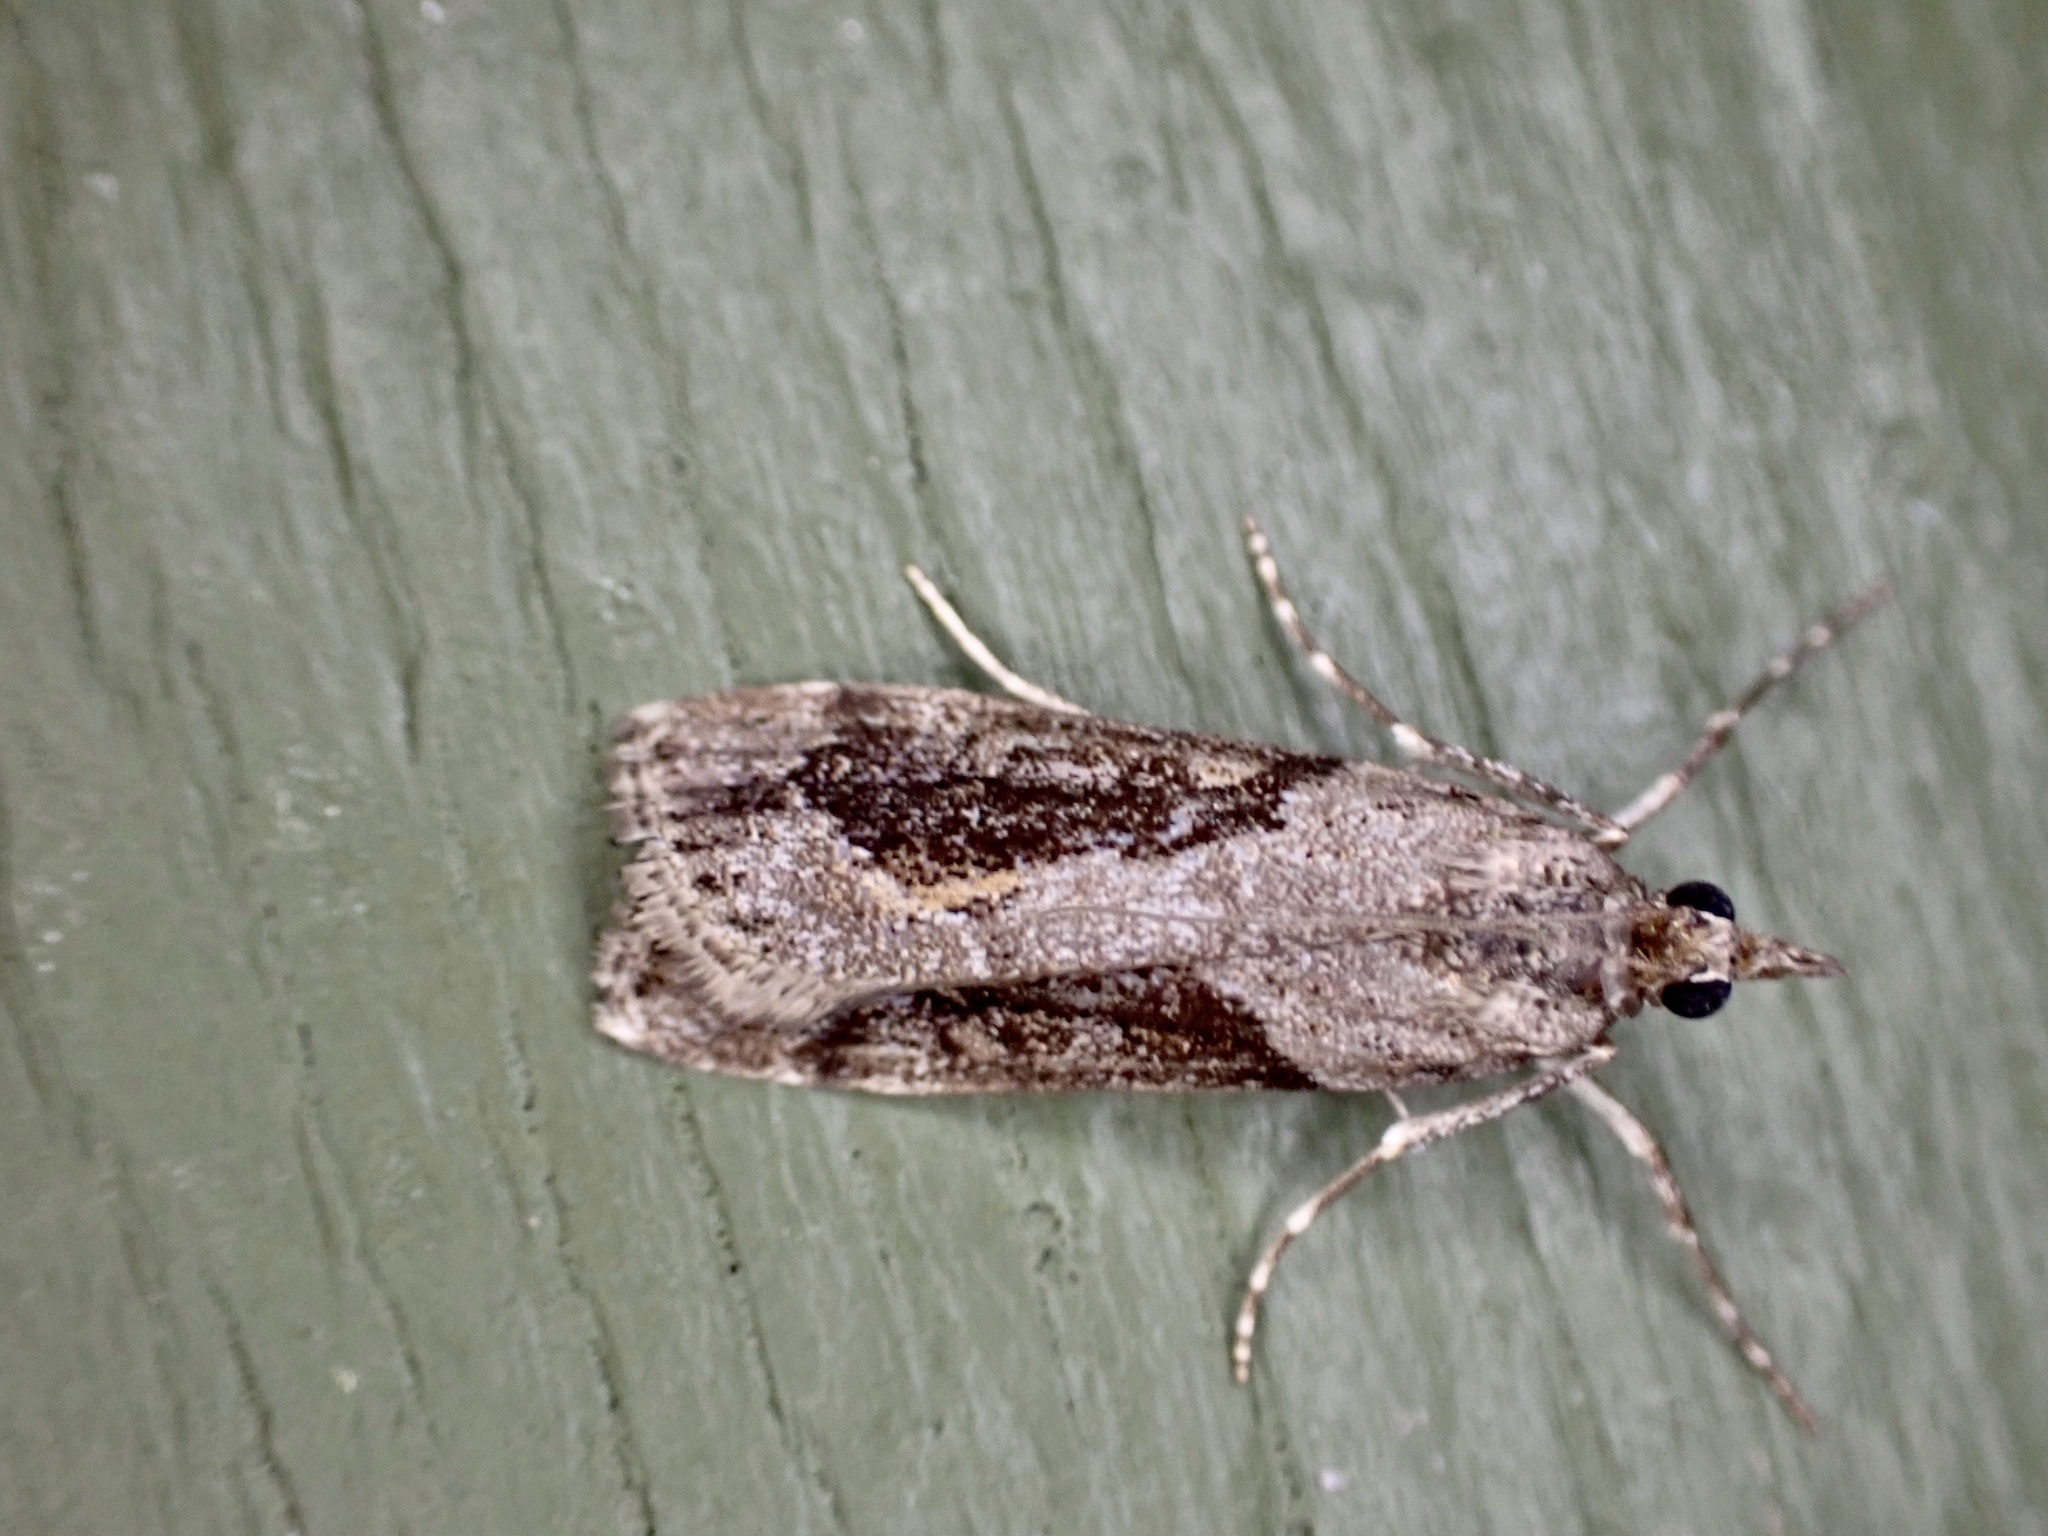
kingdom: Animalia
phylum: Arthropoda
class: Insecta
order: Lepidoptera
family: Crambidae
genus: Eudonia
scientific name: Eudonia submarginalis
